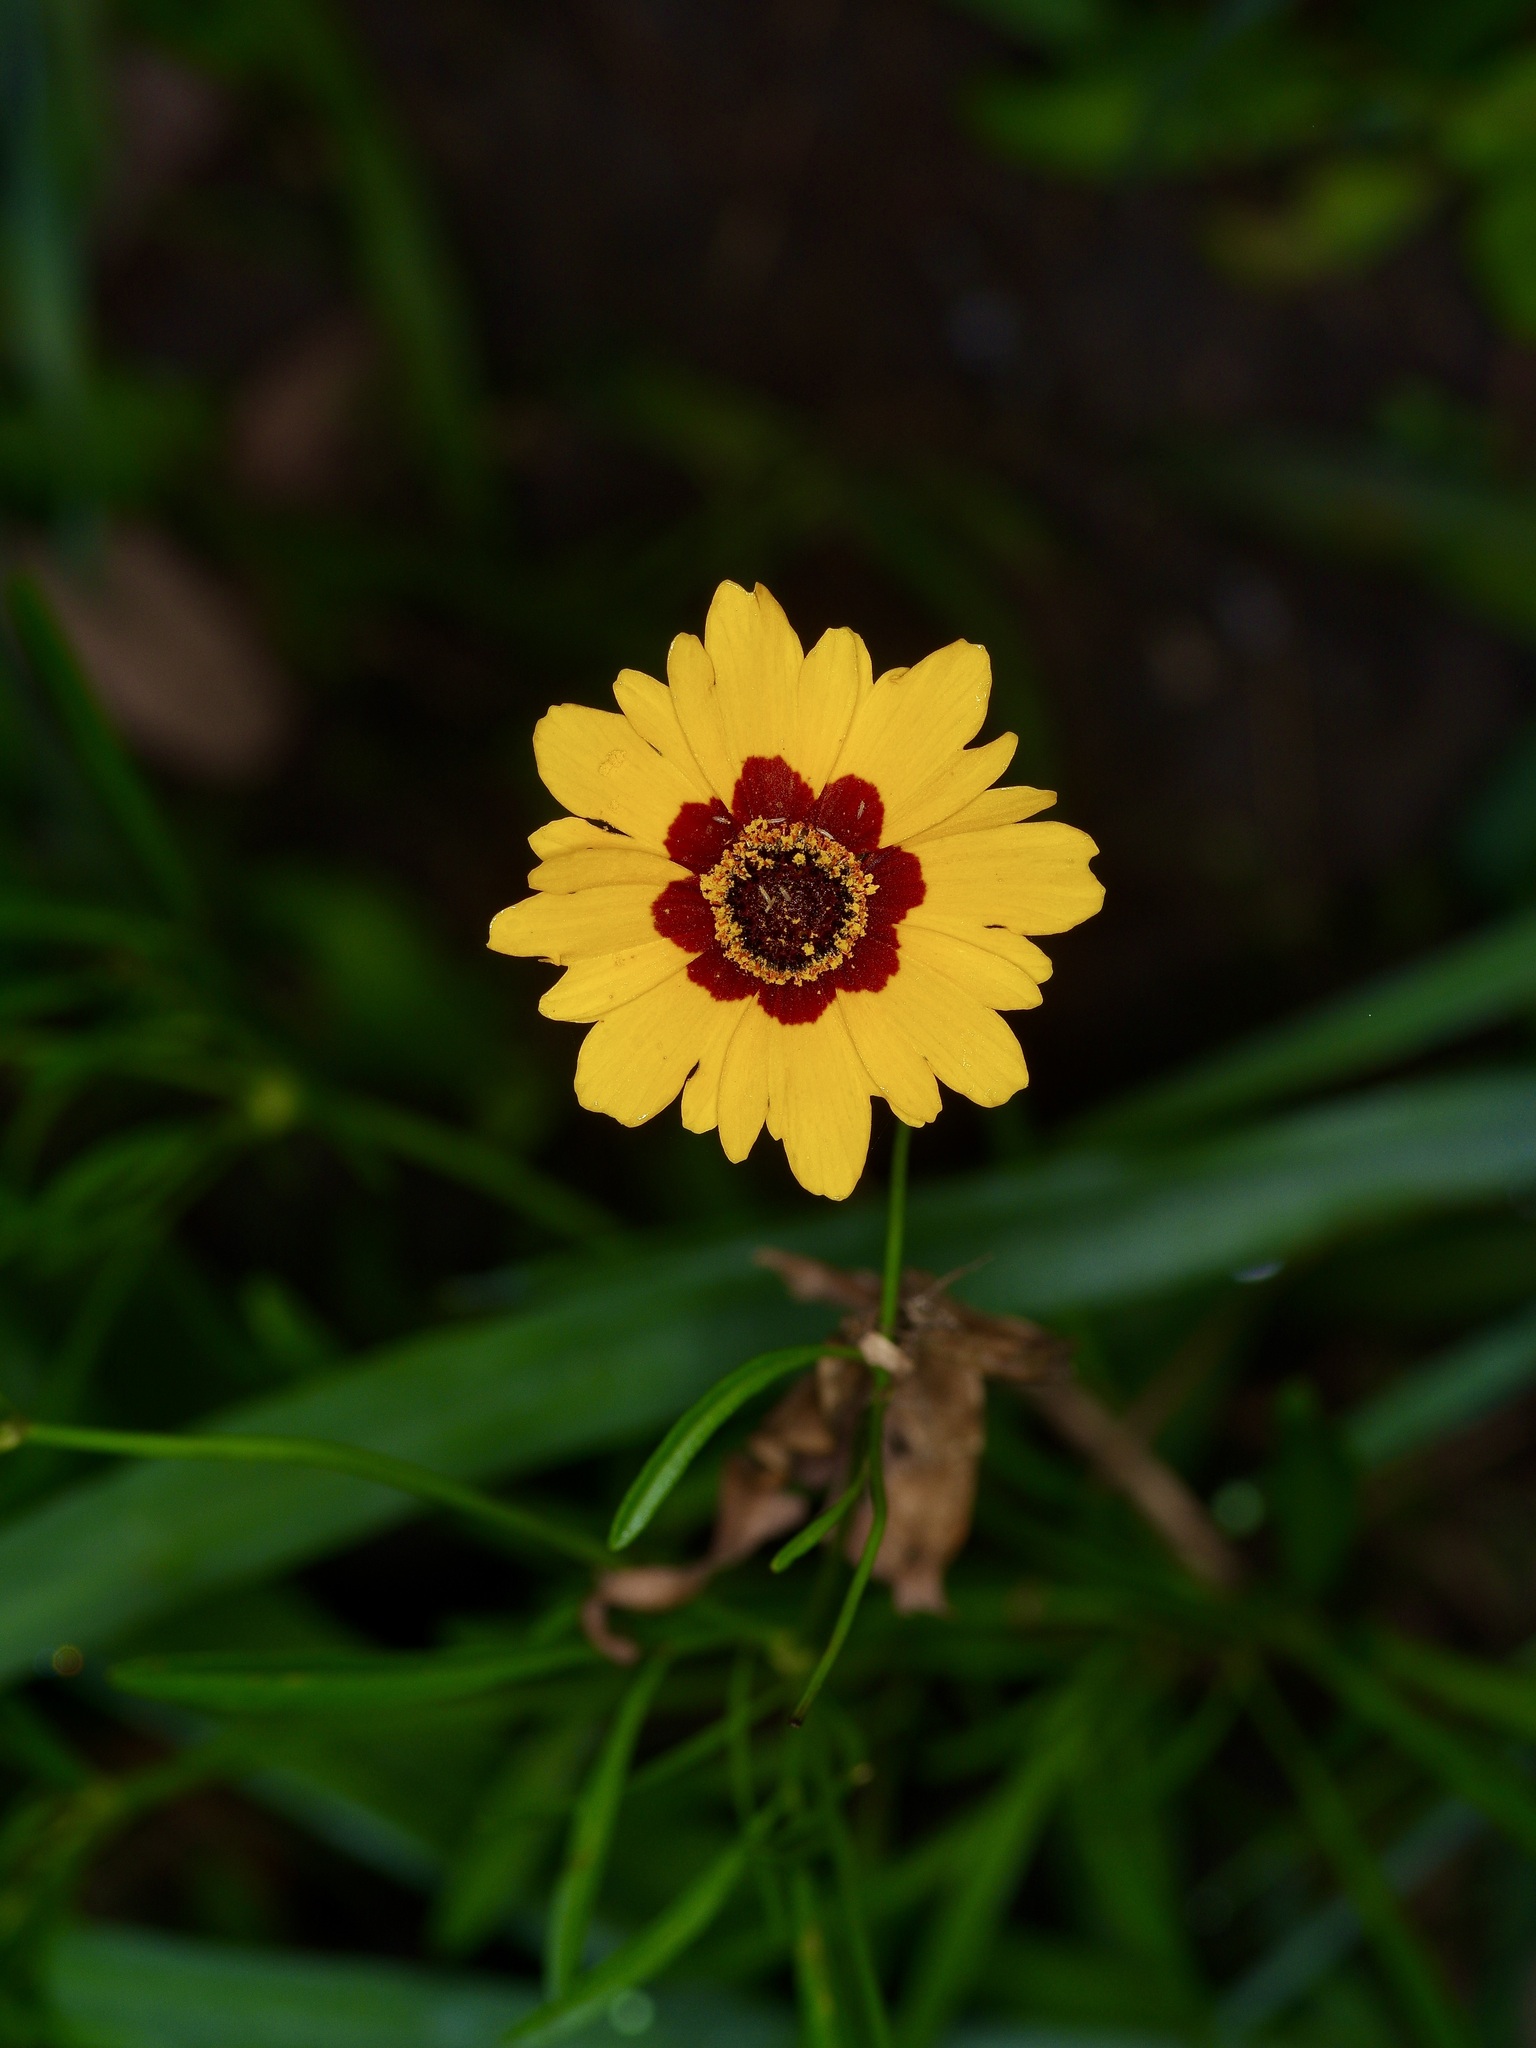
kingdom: Plantae
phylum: Tracheophyta
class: Magnoliopsida
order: Asterales
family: Asteraceae
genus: Coreopsis
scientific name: Coreopsis tinctoria
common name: Garden tickseed
